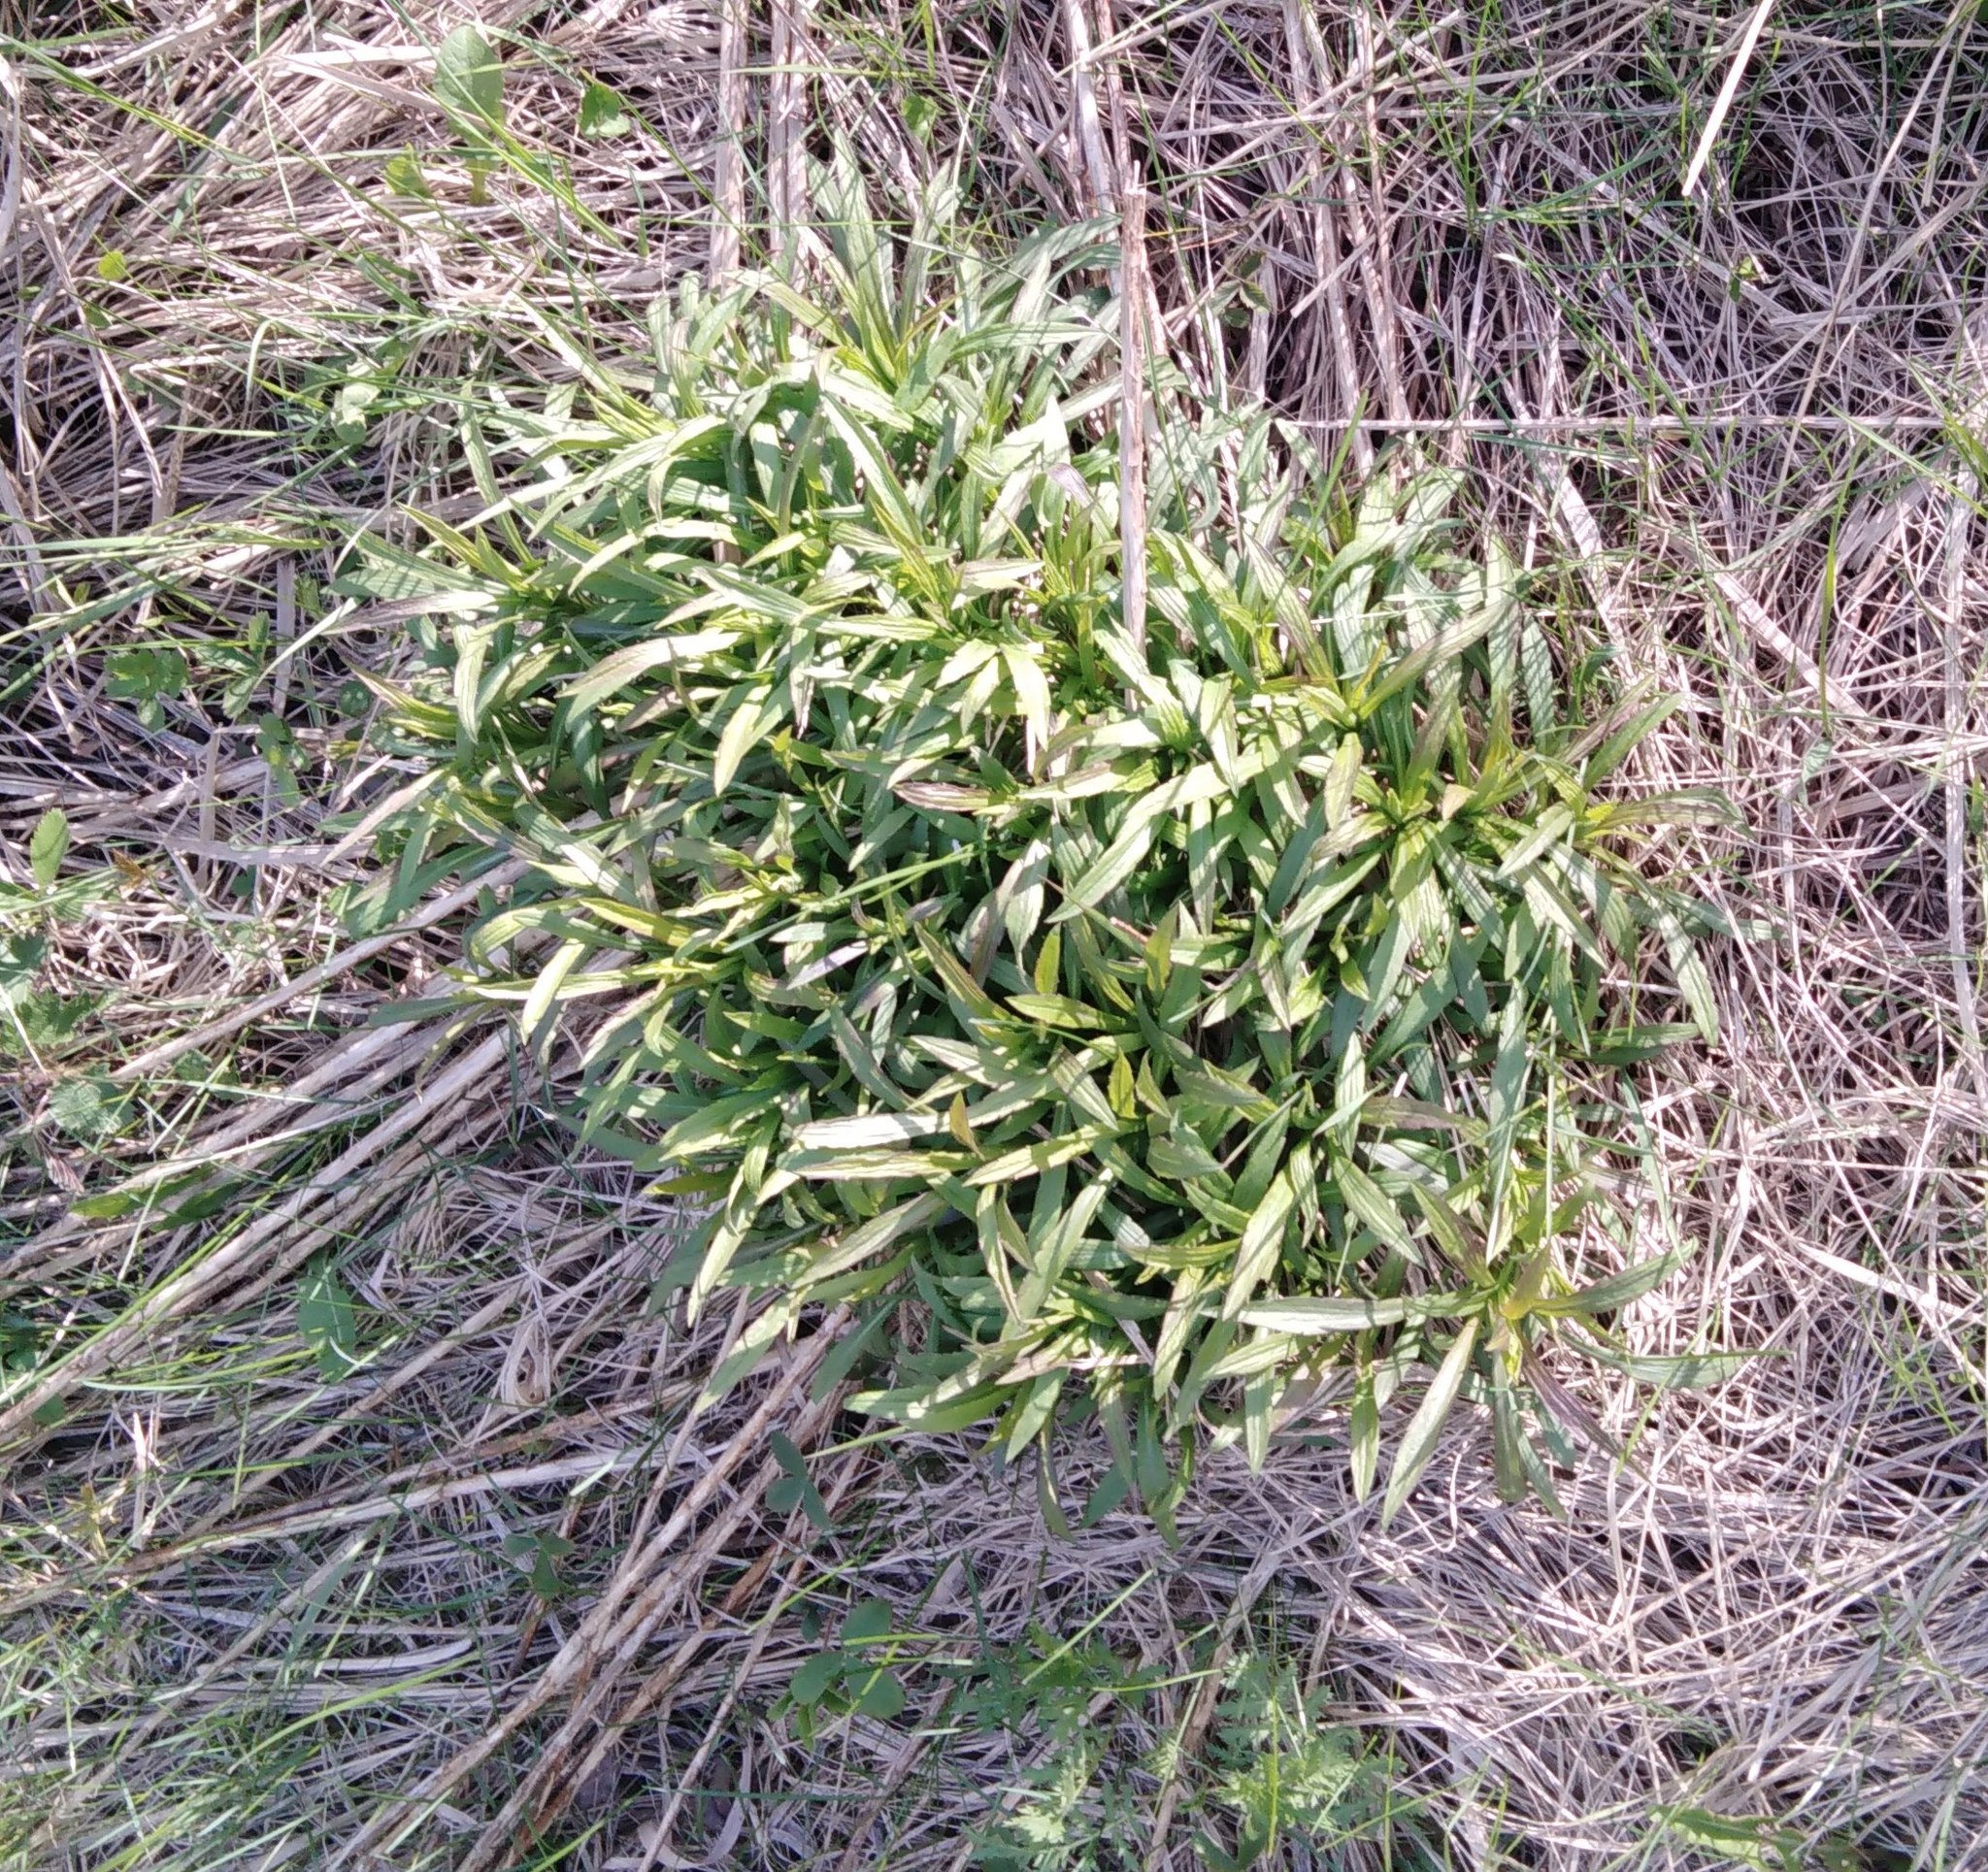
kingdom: Plantae
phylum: Tracheophyta
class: Magnoliopsida
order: Asterales
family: Asteraceae
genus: Solidago
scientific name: Solidago canadensis
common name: Canada goldenrod
